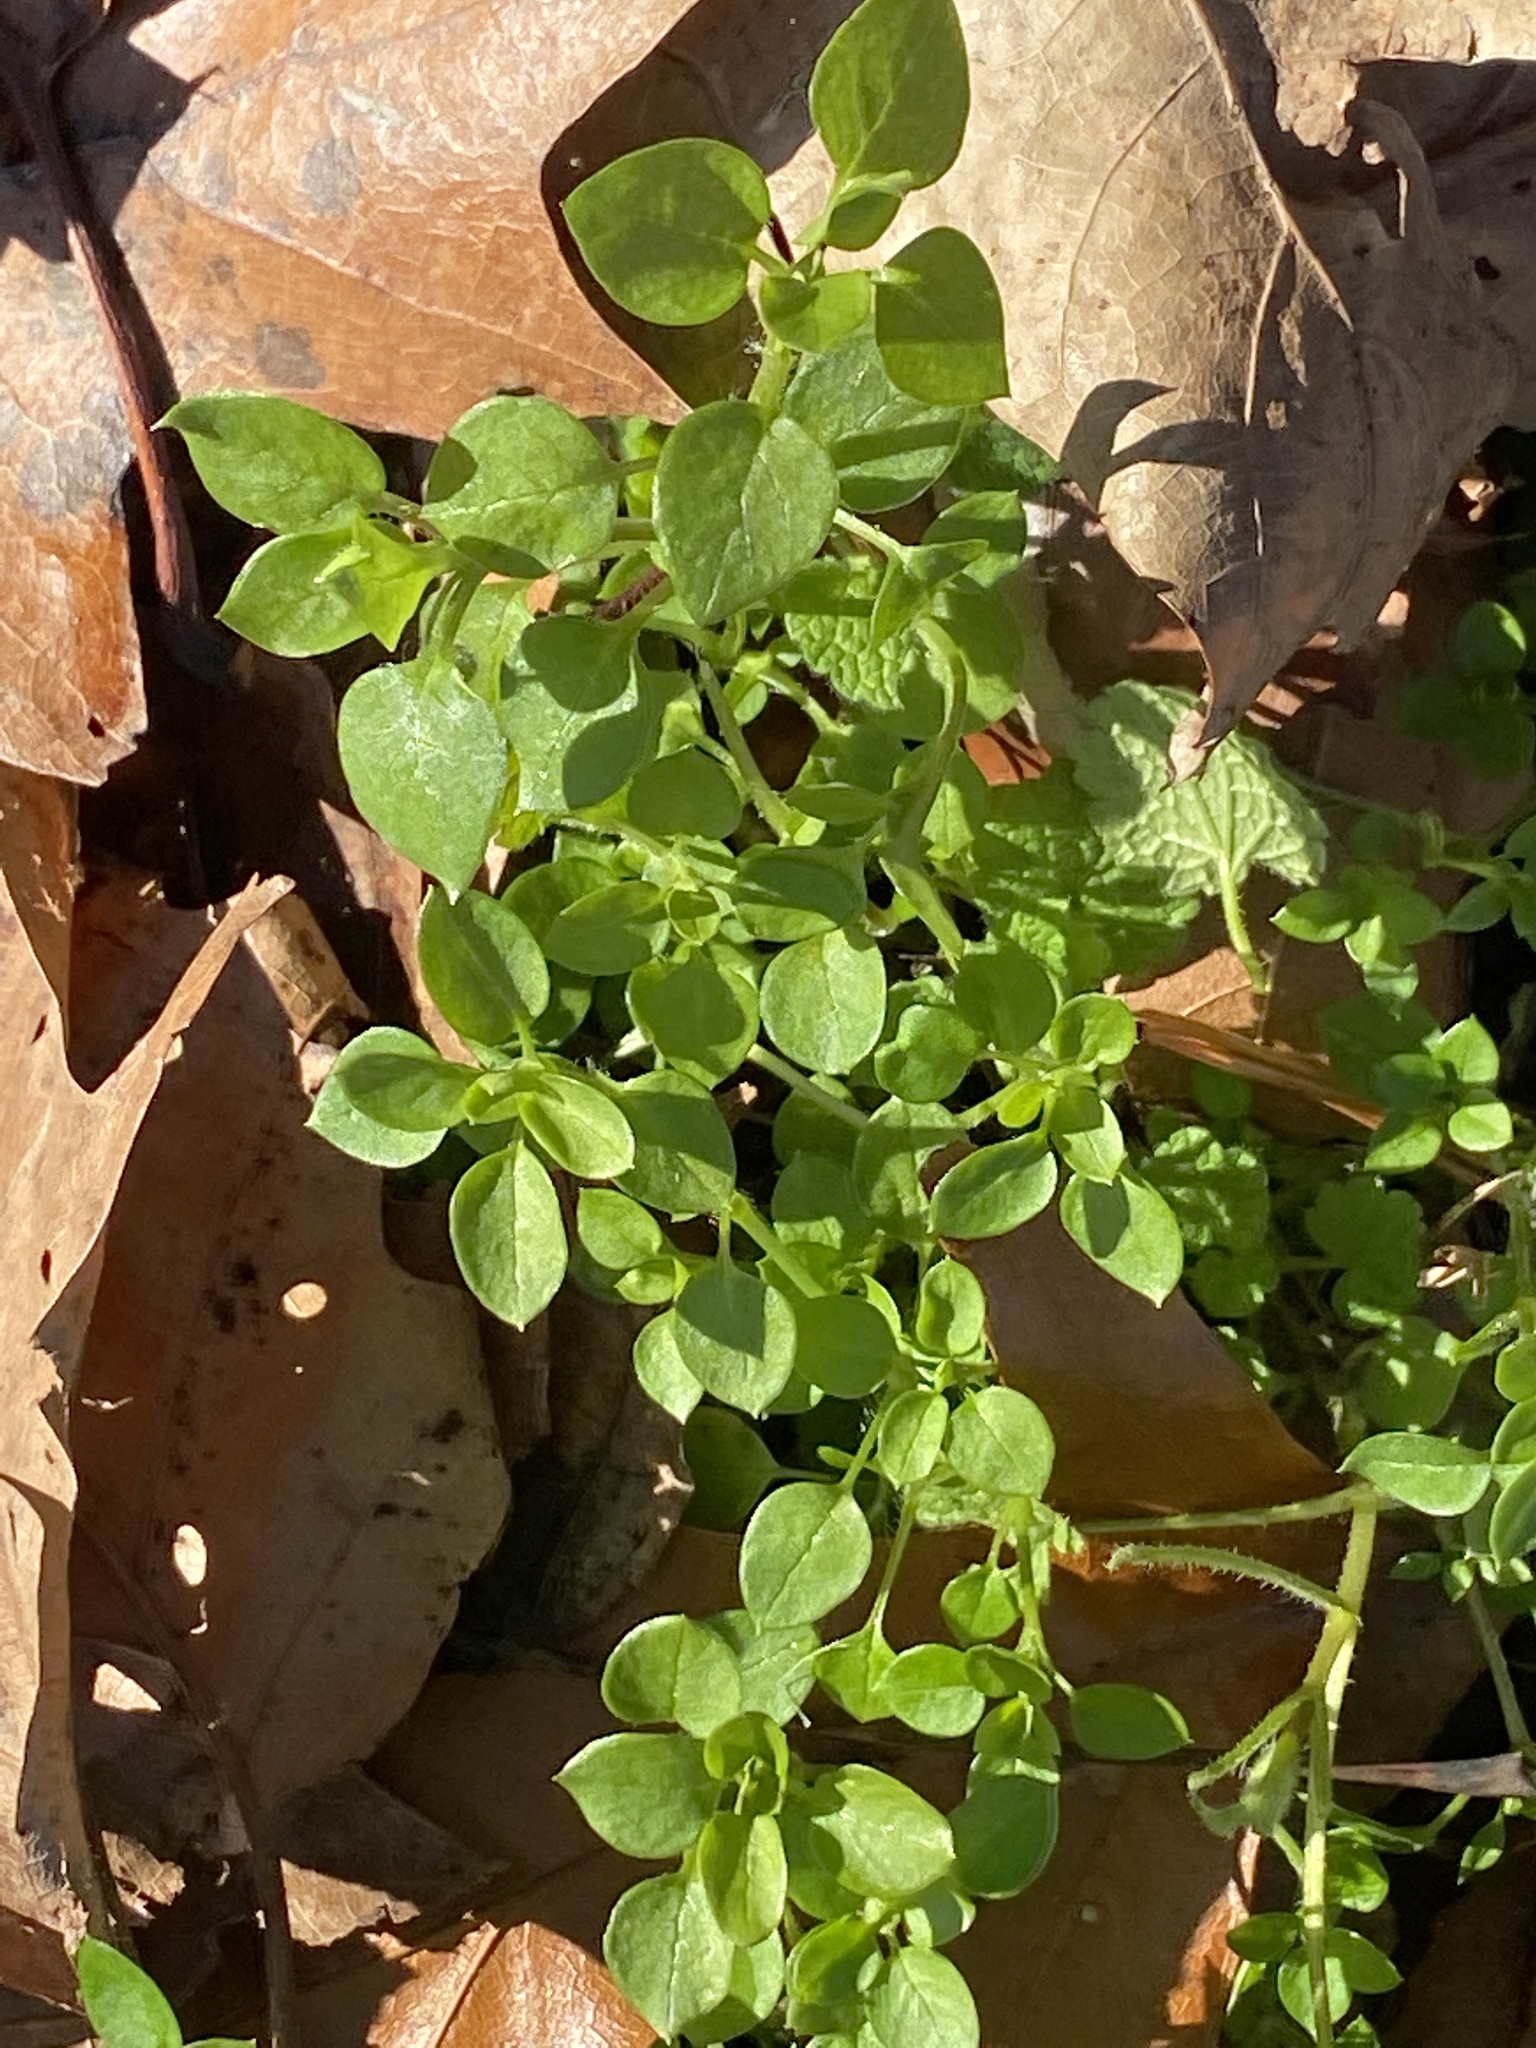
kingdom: Plantae
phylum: Tracheophyta
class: Magnoliopsida
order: Caryophyllales
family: Caryophyllaceae
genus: Stellaria
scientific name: Stellaria media
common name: Common chickweed
